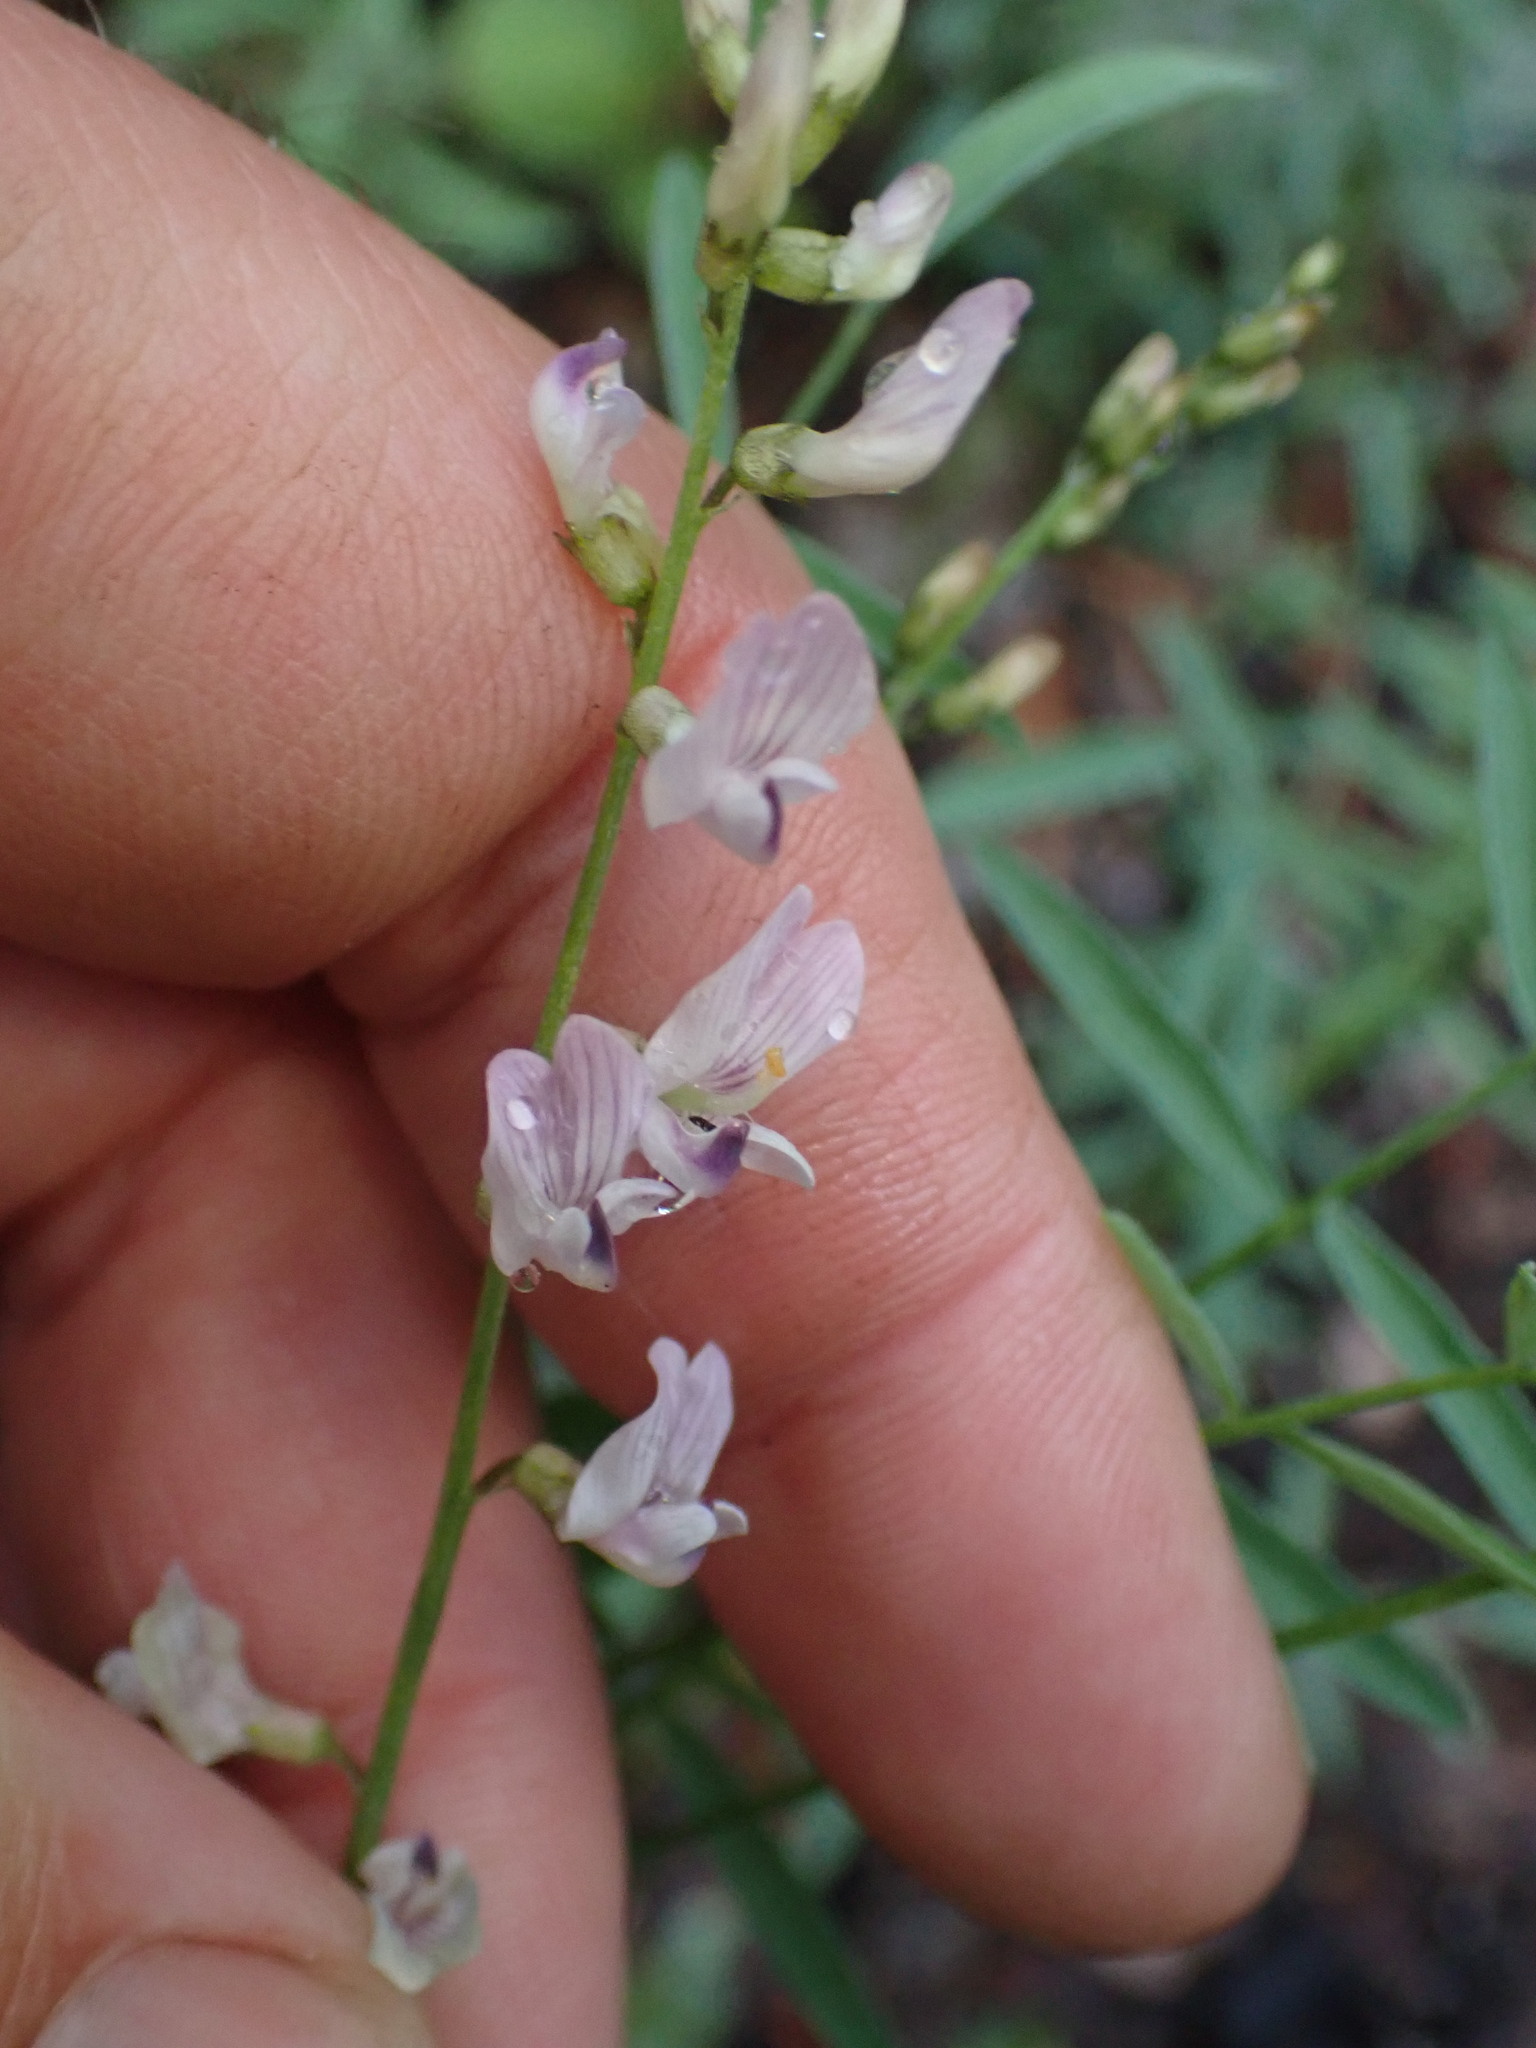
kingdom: Plantae
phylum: Tracheophyta
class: Magnoliopsida
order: Fabales
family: Fabaceae
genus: Astragalus
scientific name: Astragalus miser
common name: Timber milkvetch
